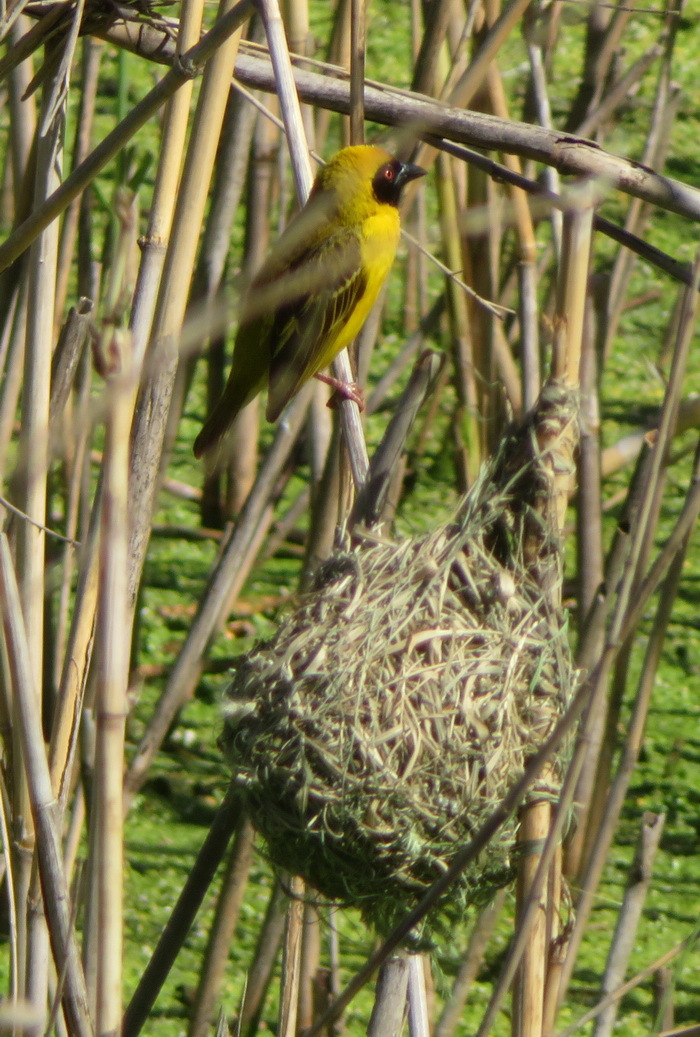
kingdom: Animalia
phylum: Chordata
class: Aves
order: Passeriformes
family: Ploceidae
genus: Ploceus
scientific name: Ploceus velatus
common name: Southern masked weaver
